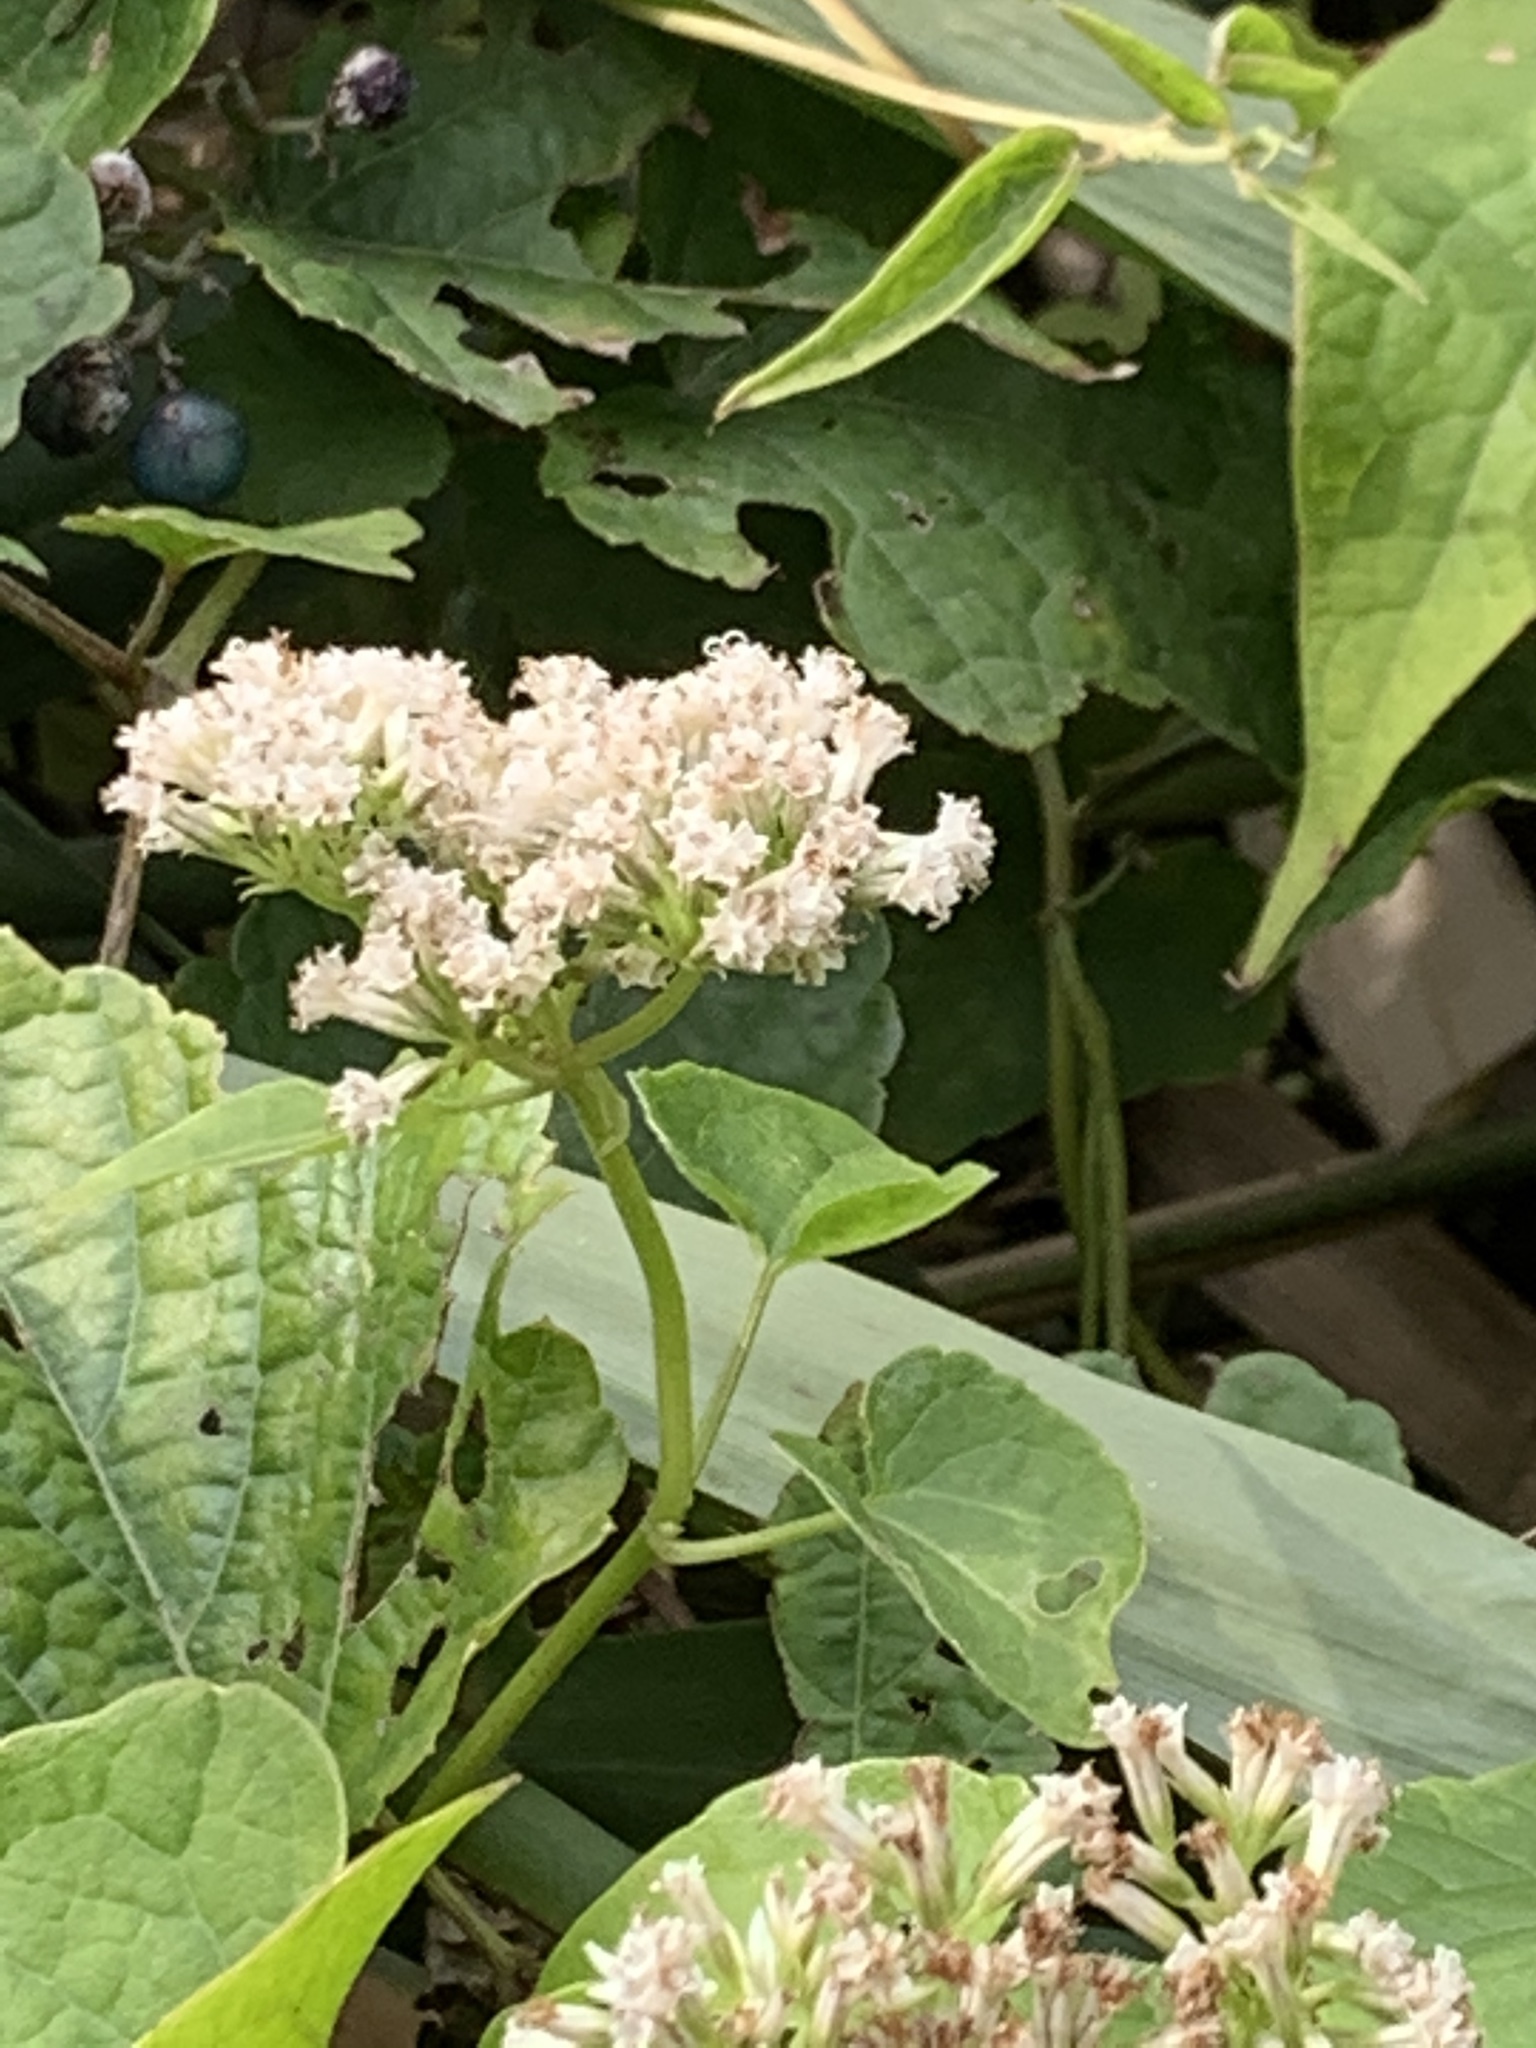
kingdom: Plantae
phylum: Tracheophyta
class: Magnoliopsida
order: Asterales
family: Asteraceae
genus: Mikania
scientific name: Mikania scandens
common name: Climbing hempvine
